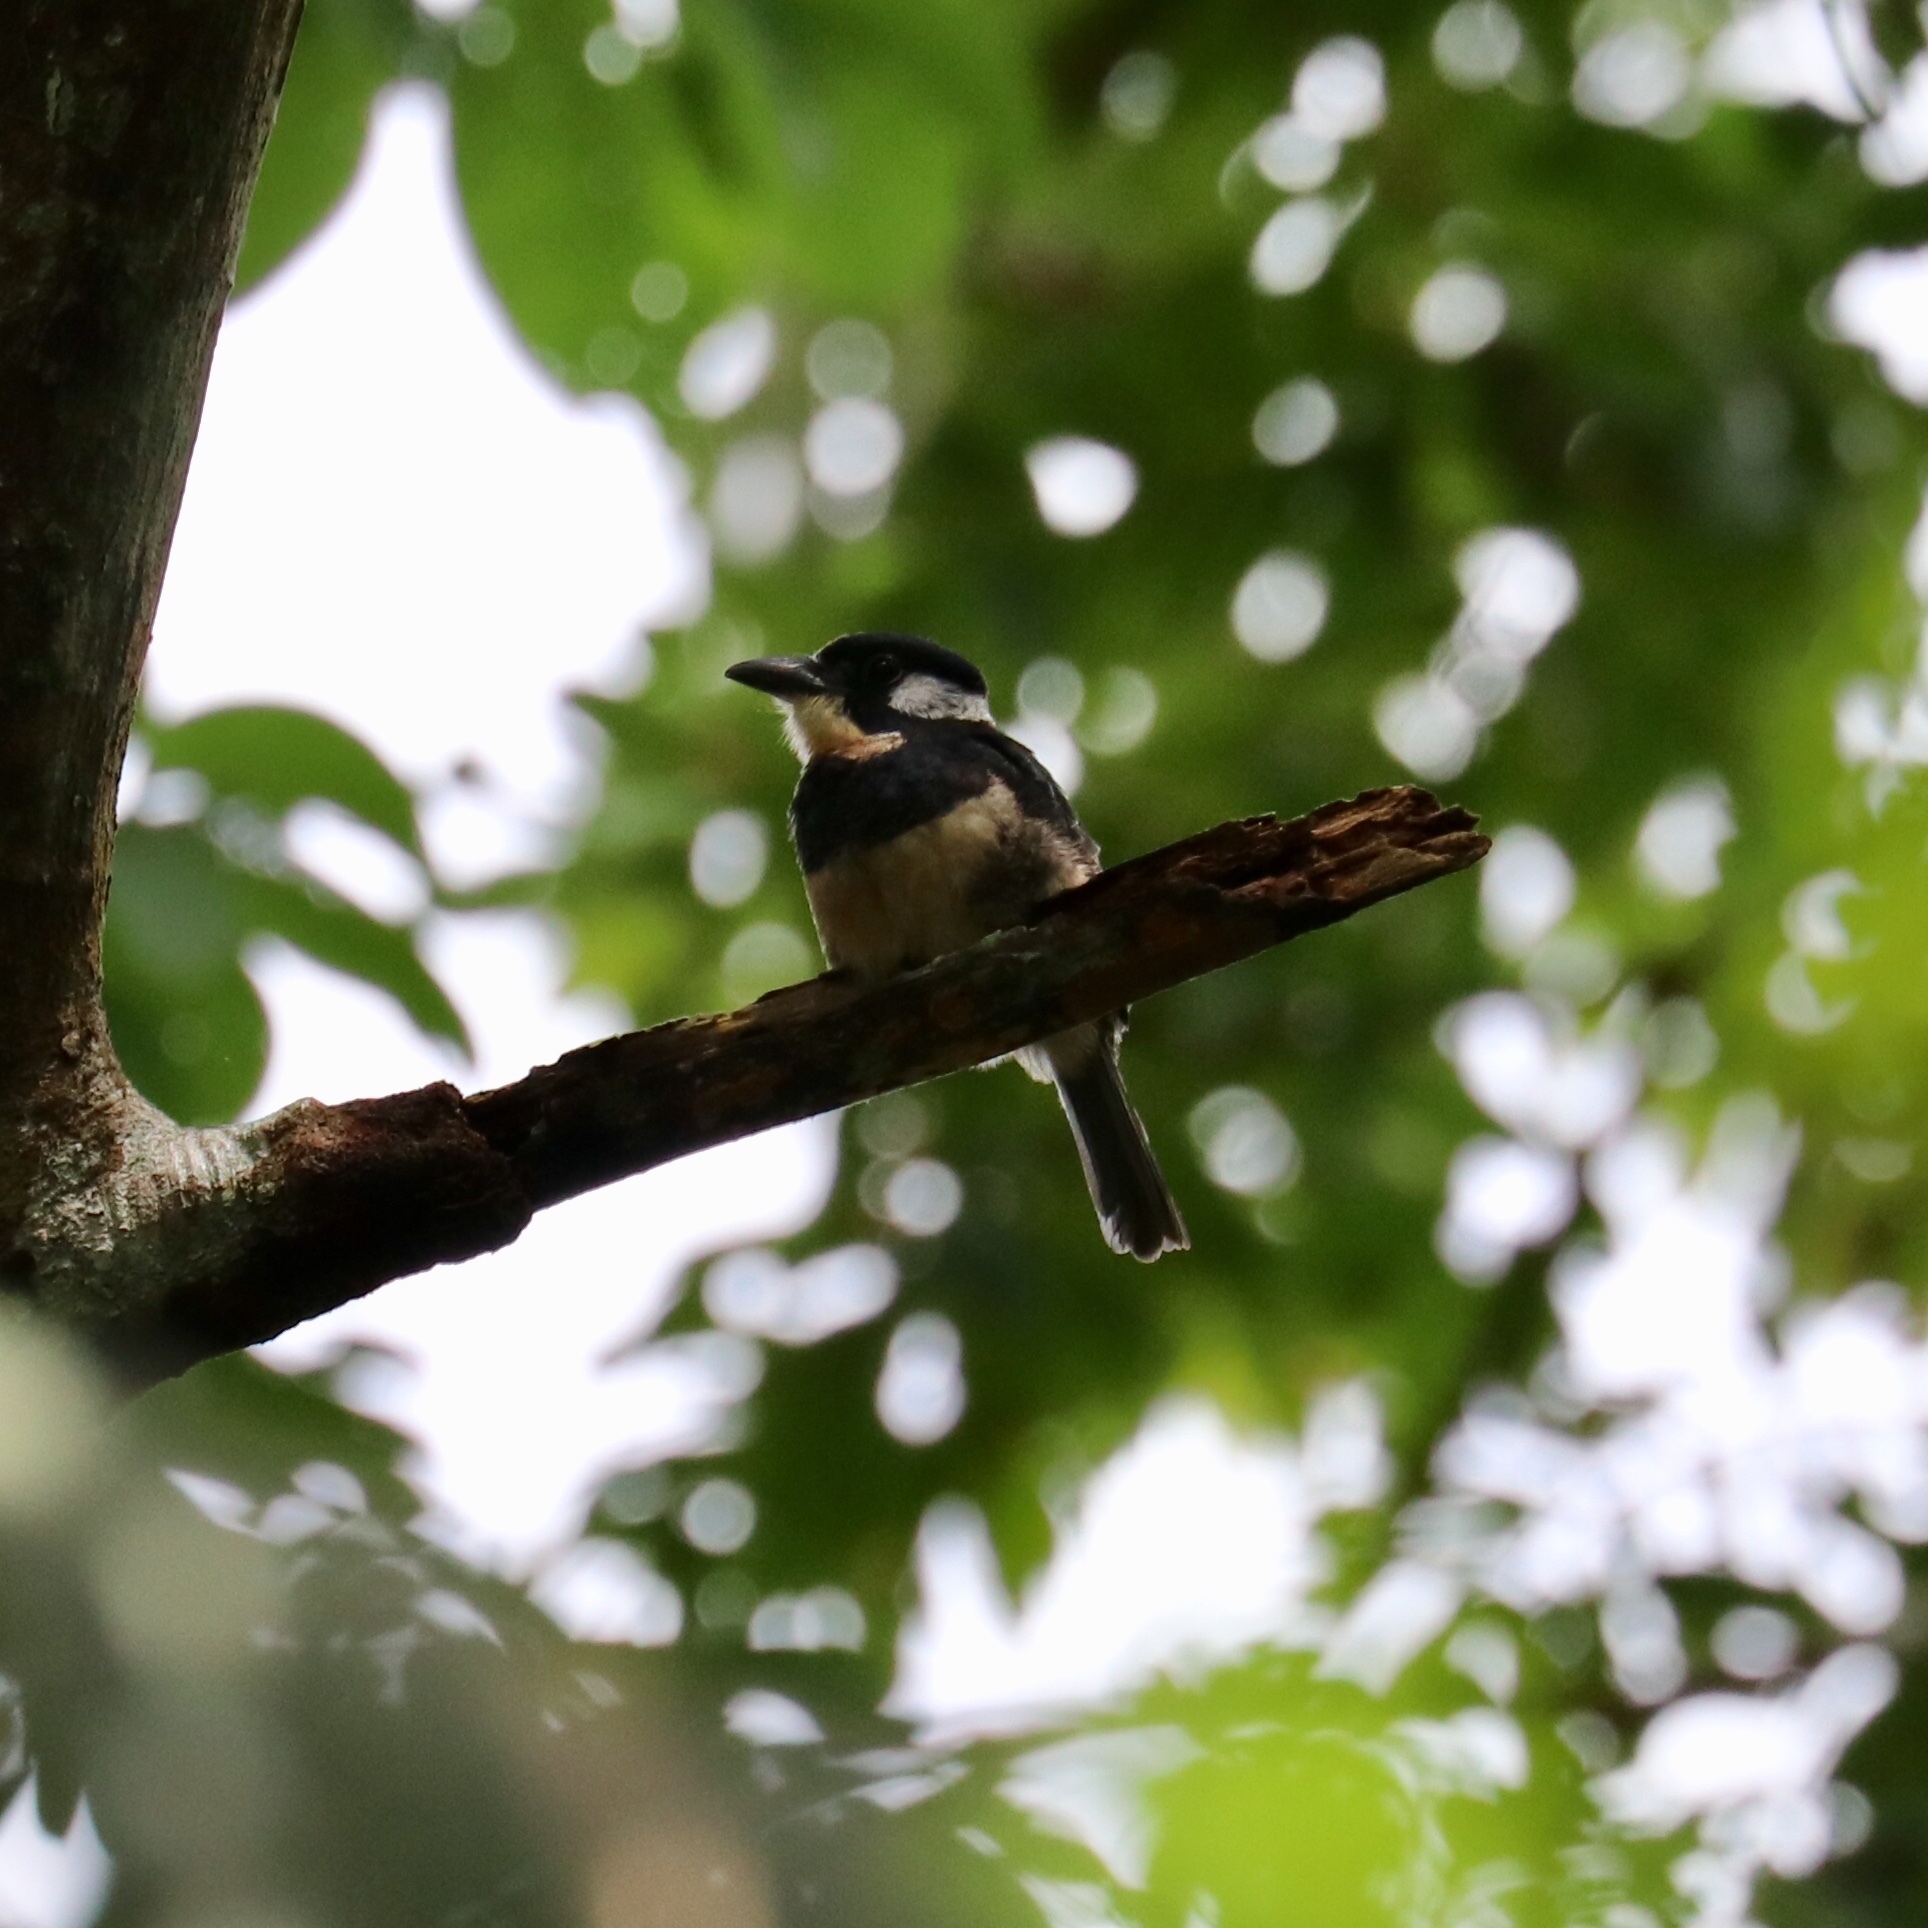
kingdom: Animalia
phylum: Chordata
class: Aves
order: Piciformes
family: Bucconidae
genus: Notharchus
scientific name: Notharchus pectoralis
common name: Black-breasted puffbird
